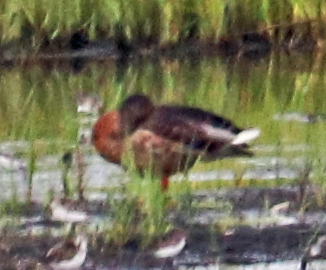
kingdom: Animalia
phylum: Chordata
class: Aves
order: Anseriformes
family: Anatidae
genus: Anas
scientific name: Anas platyrhynchos
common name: Mallard
